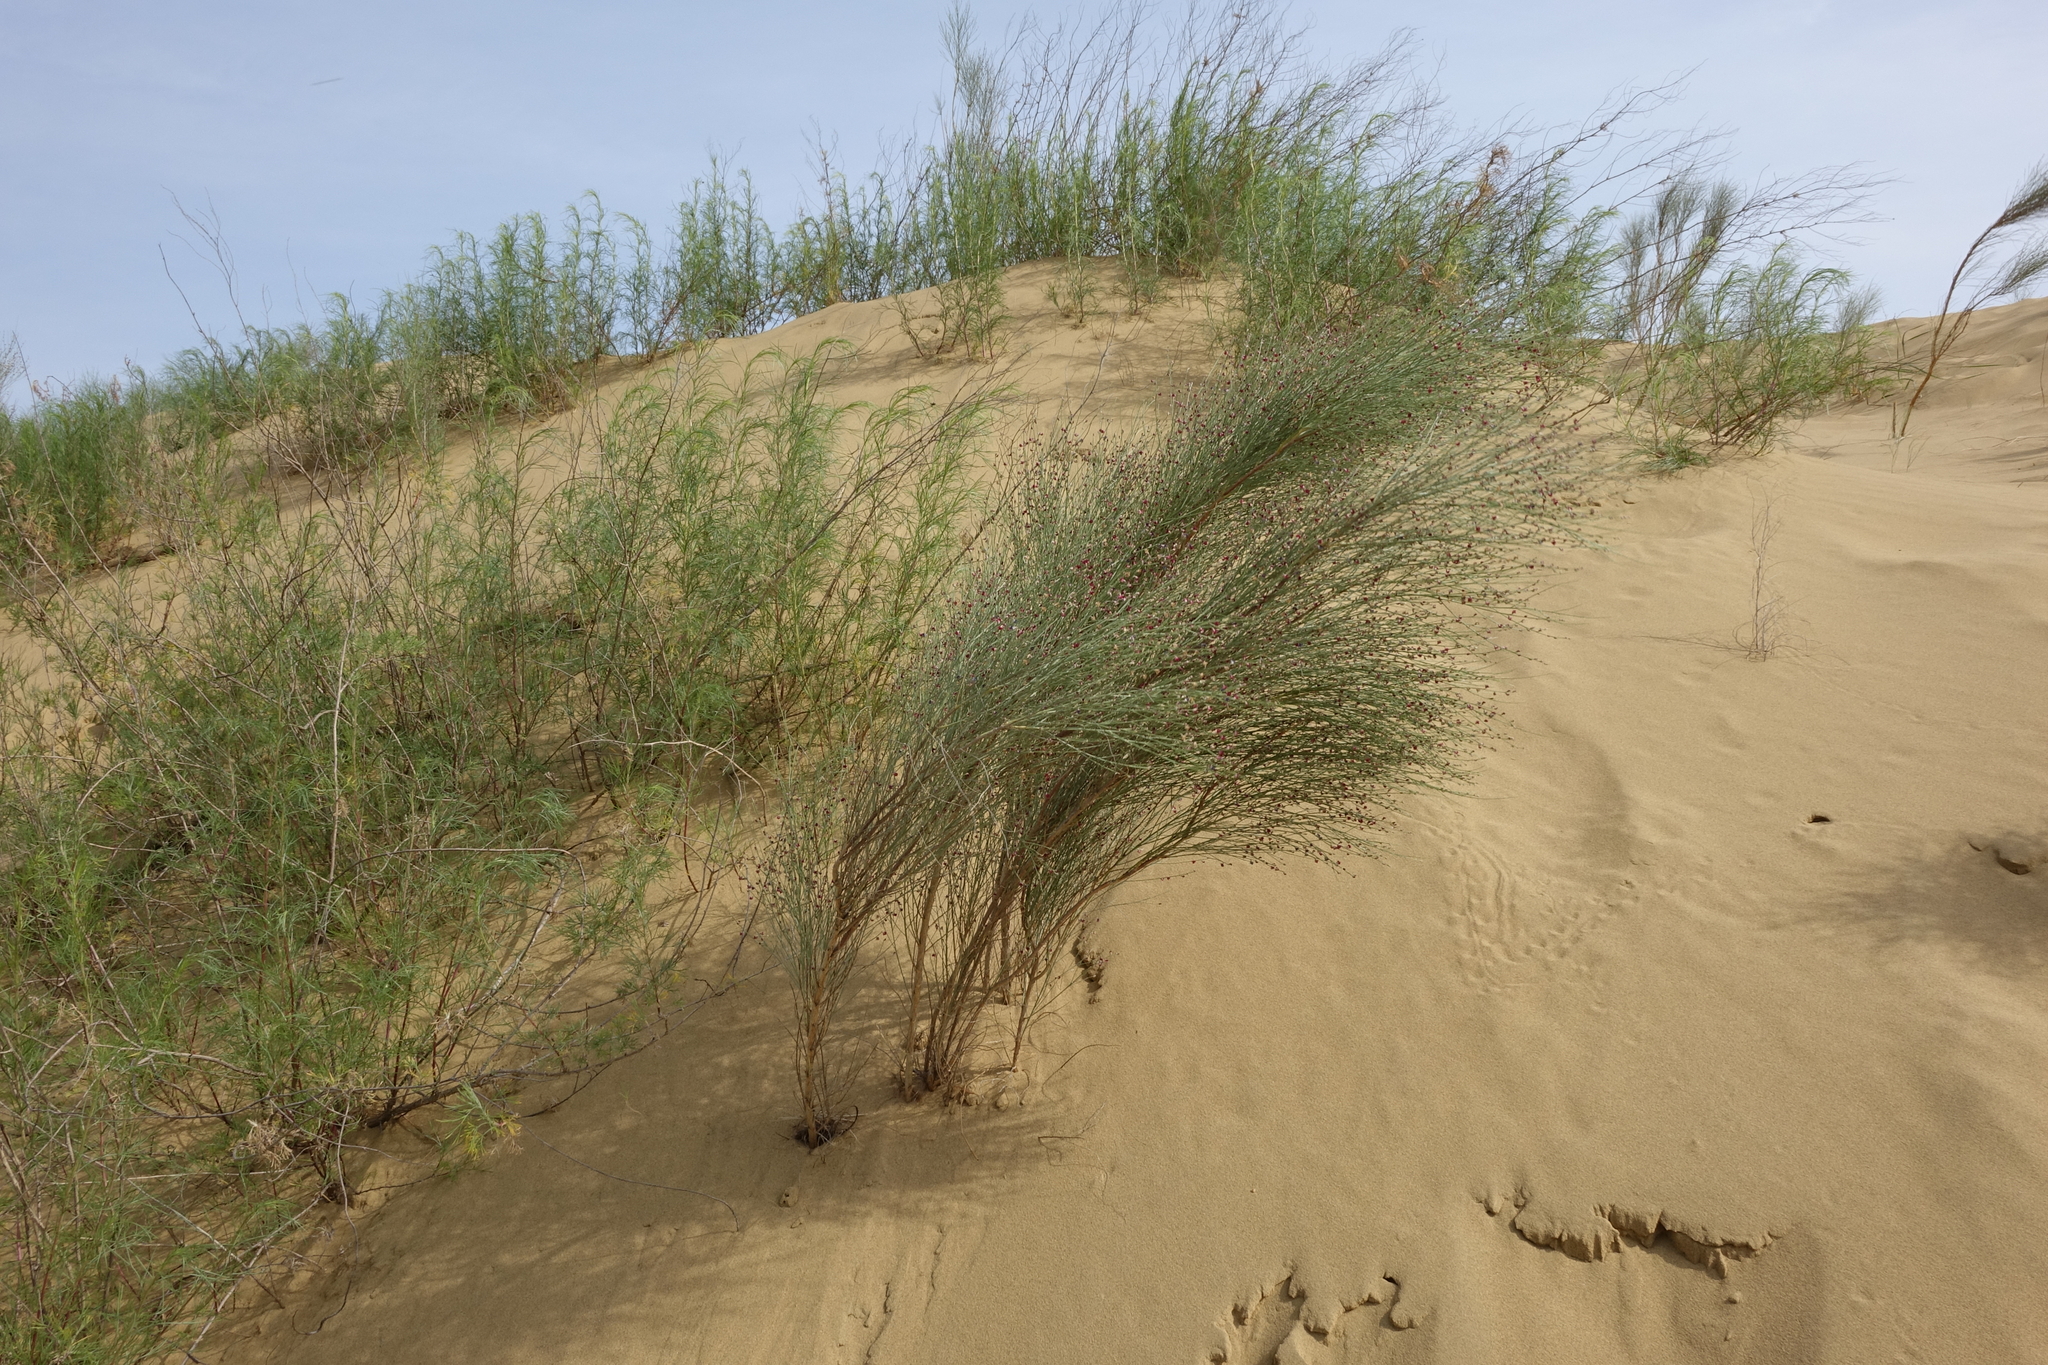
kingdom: Plantae
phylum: Tracheophyta
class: Magnoliopsida
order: Fabales
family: Fabaceae
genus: Eremosparton
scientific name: Eremosparton aphyllum
